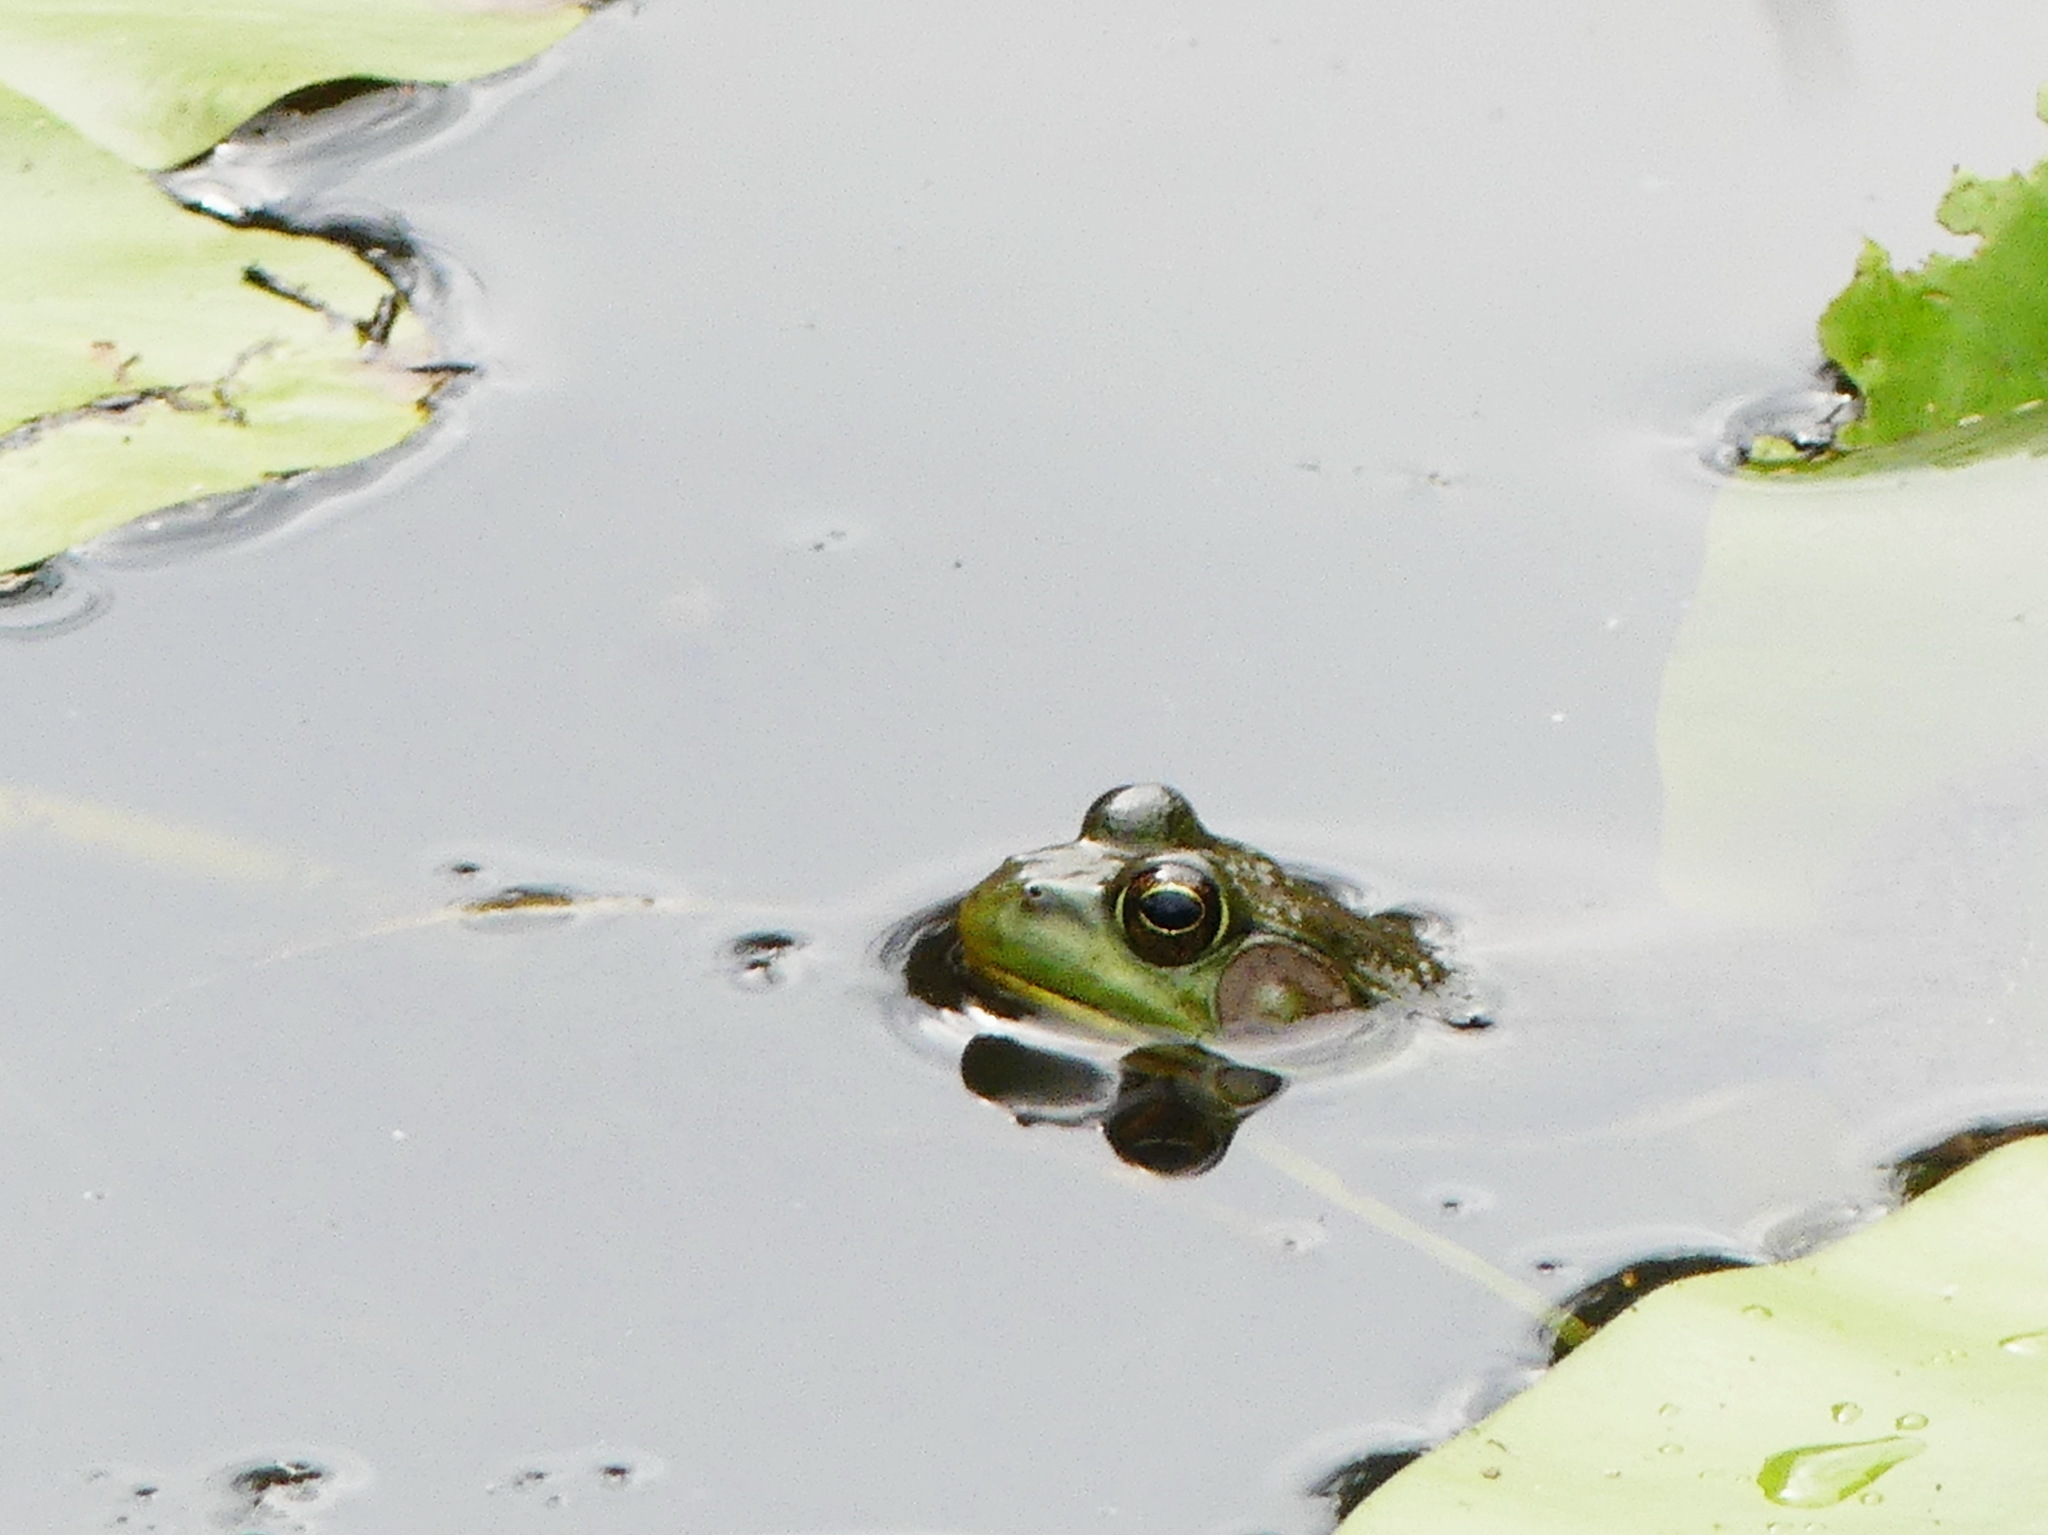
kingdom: Animalia
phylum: Chordata
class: Amphibia
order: Anura
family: Ranidae
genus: Lithobates
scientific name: Lithobates clamitans
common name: Green frog
